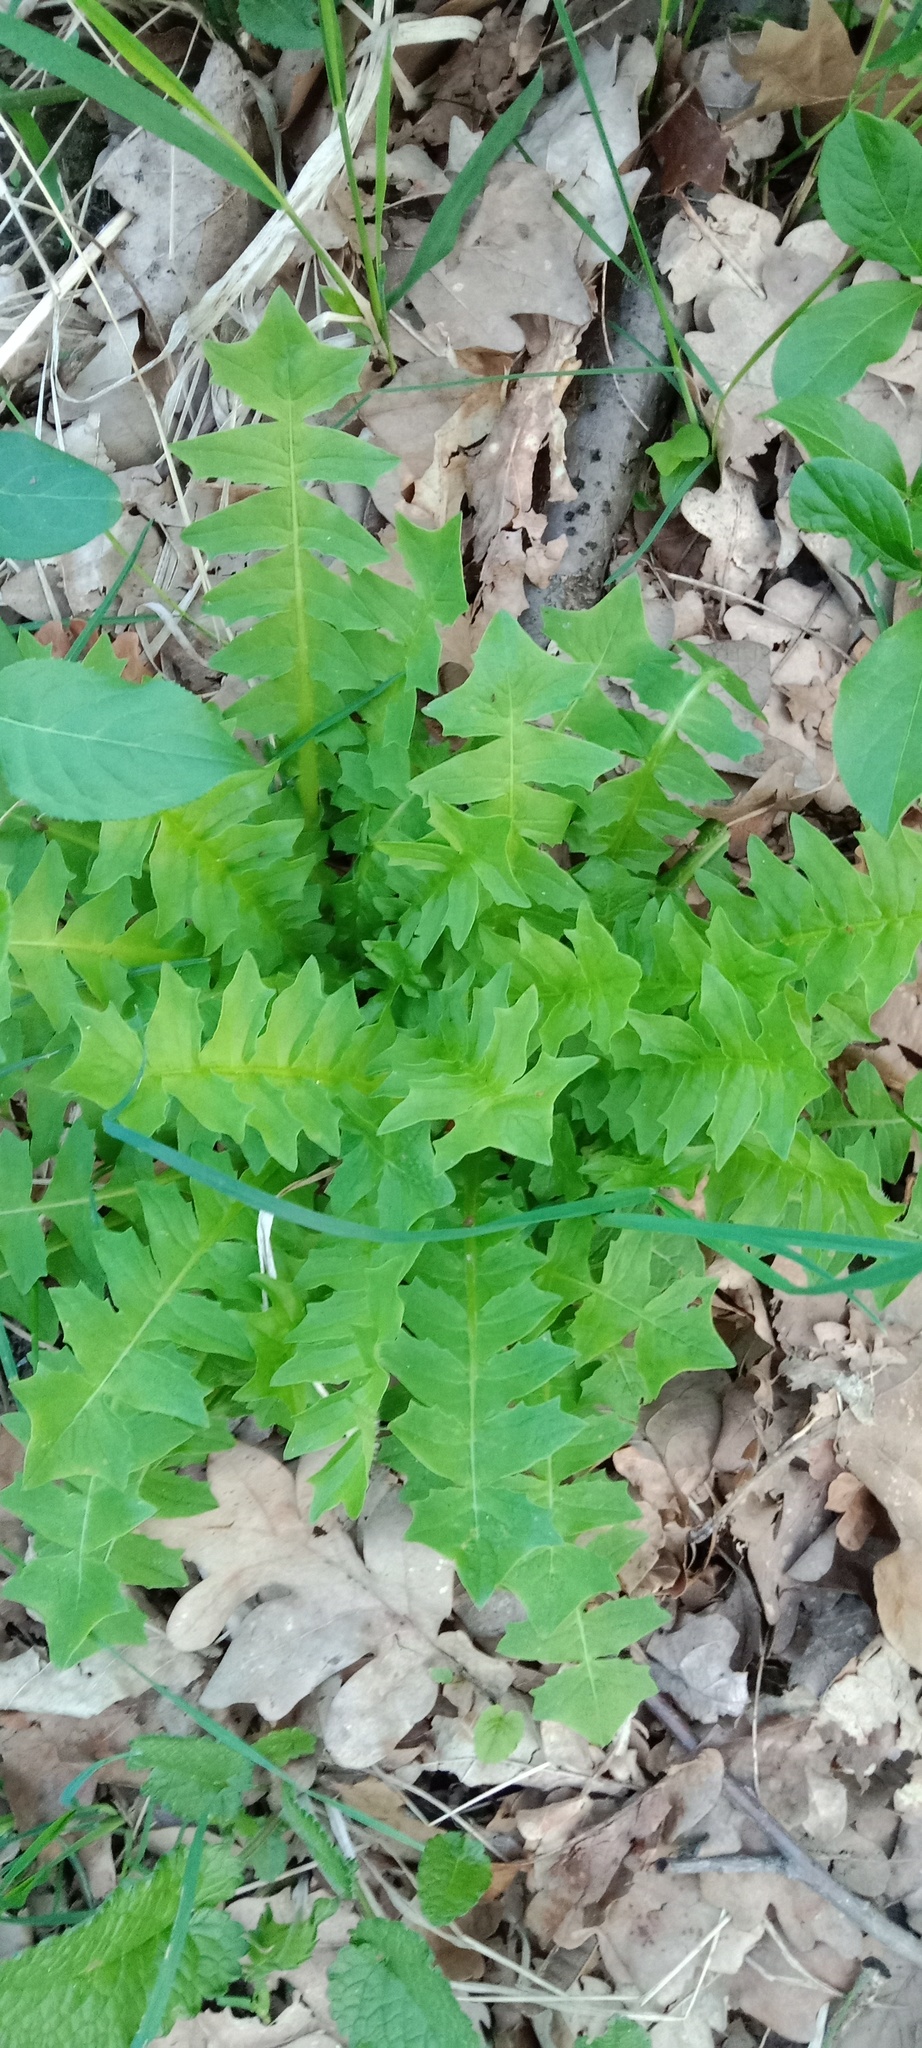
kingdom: Plantae
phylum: Tracheophyta
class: Magnoliopsida
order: Asterales
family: Asteraceae
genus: Aposeris
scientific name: Aposeris foetida
